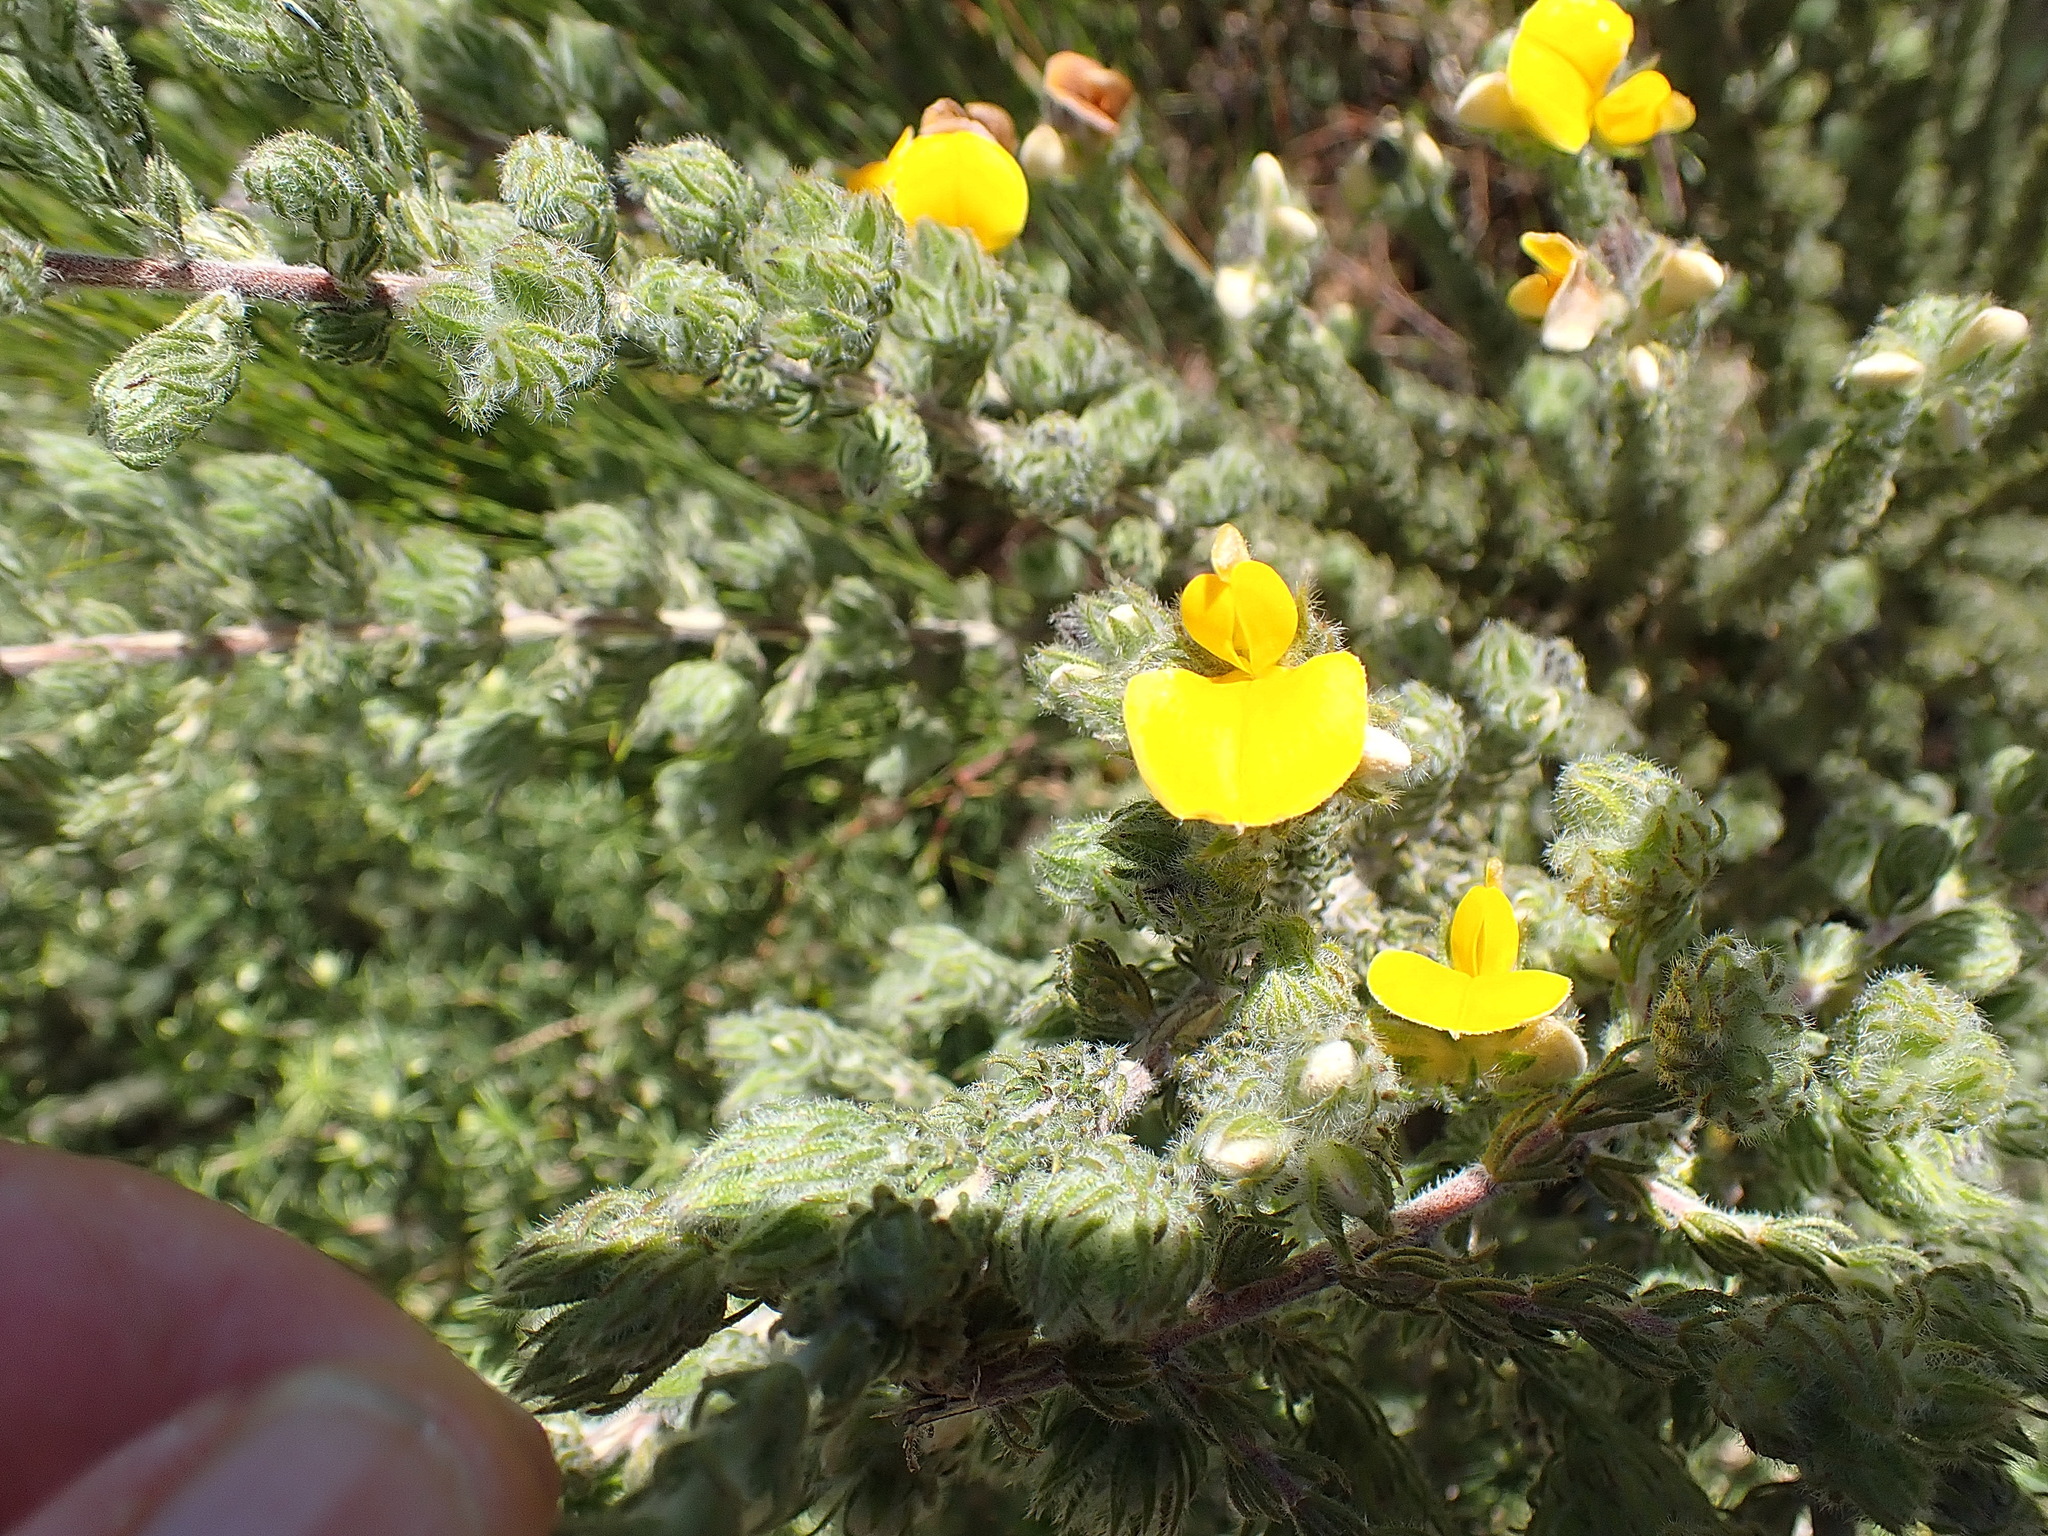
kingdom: Plantae
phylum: Tracheophyta
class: Magnoliopsida
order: Fabales
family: Fabaceae
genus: Aspalathus
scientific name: Aspalathus ciliaris
